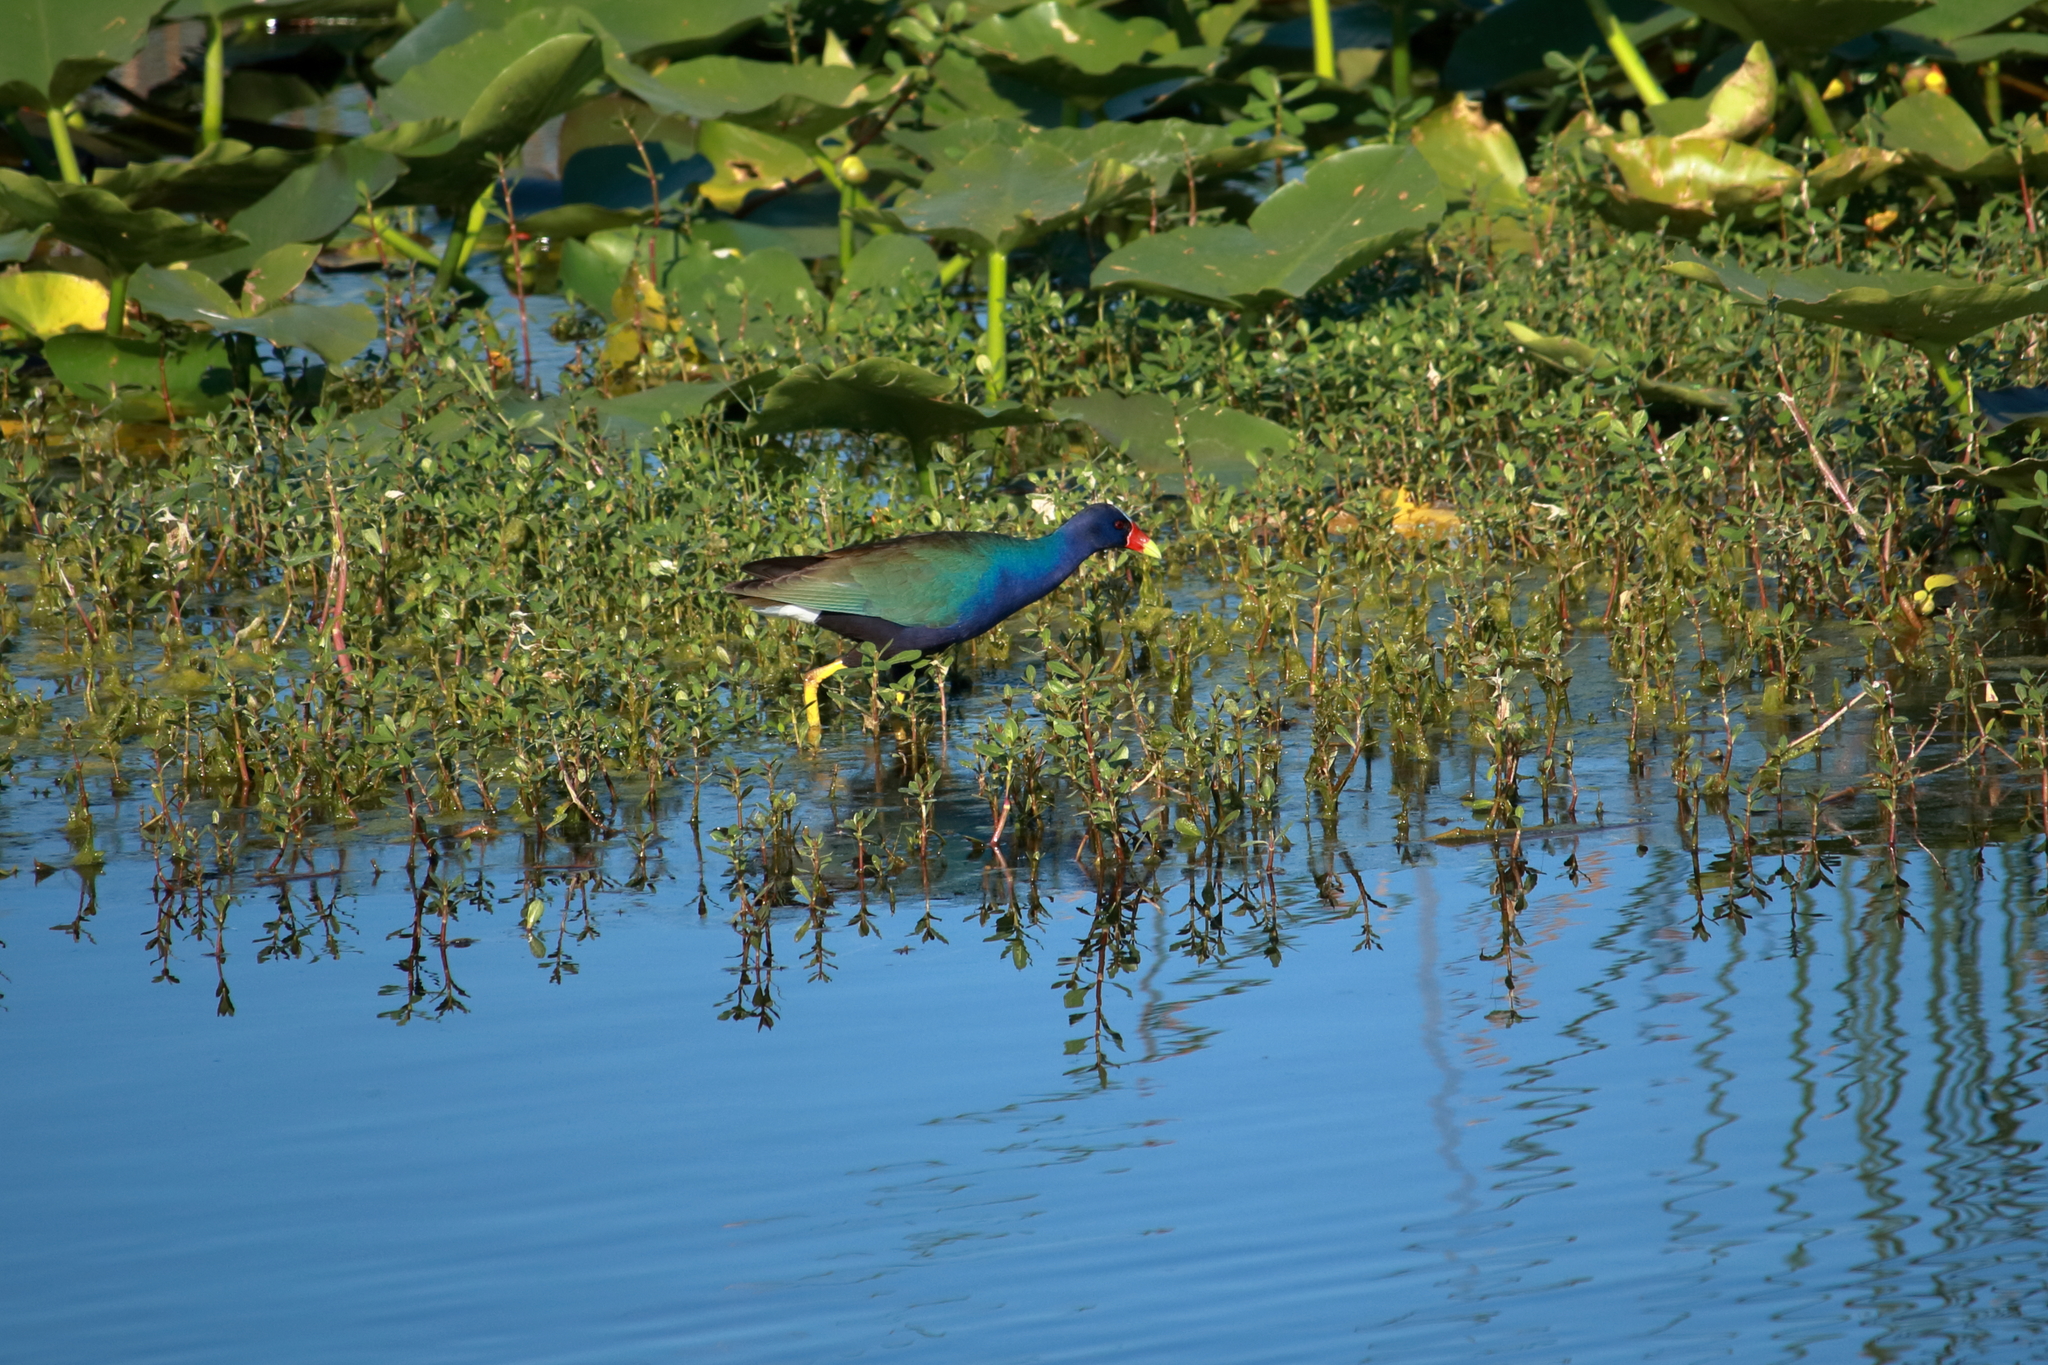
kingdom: Animalia
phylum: Chordata
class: Aves
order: Gruiformes
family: Rallidae
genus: Porphyrio
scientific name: Porphyrio martinica
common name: Purple gallinule
